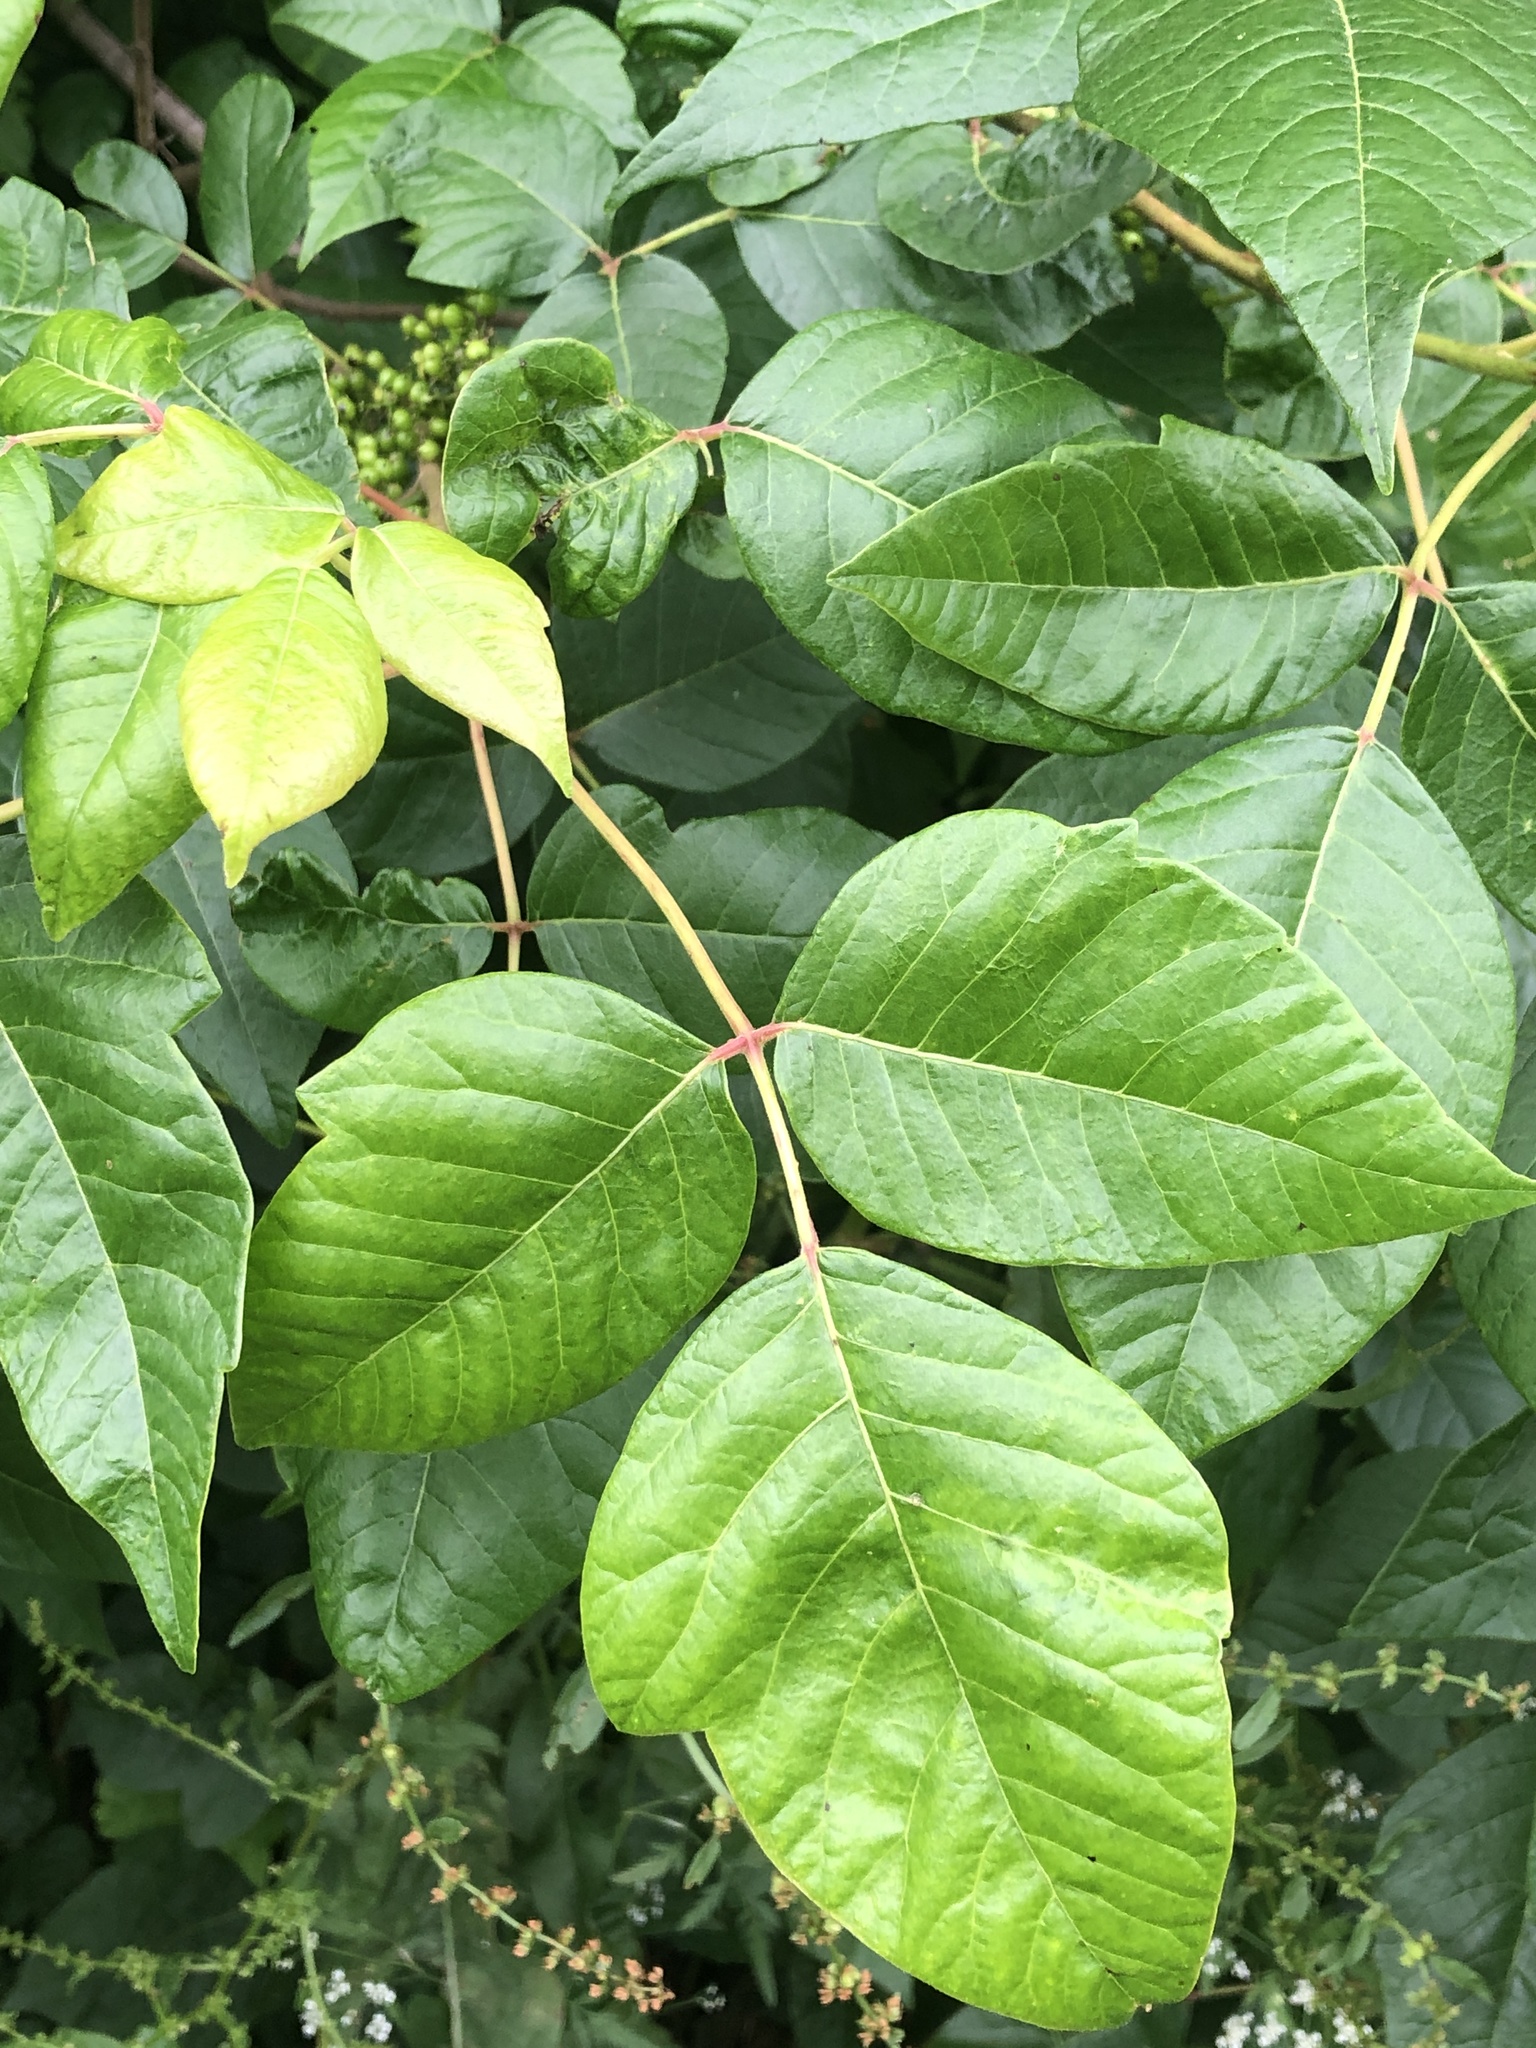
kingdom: Plantae
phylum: Tracheophyta
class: Magnoliopsida
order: Sapindales
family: Anacardiaceae
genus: Toxicodendron
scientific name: Toxicodendron radicans
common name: Poison ivy
